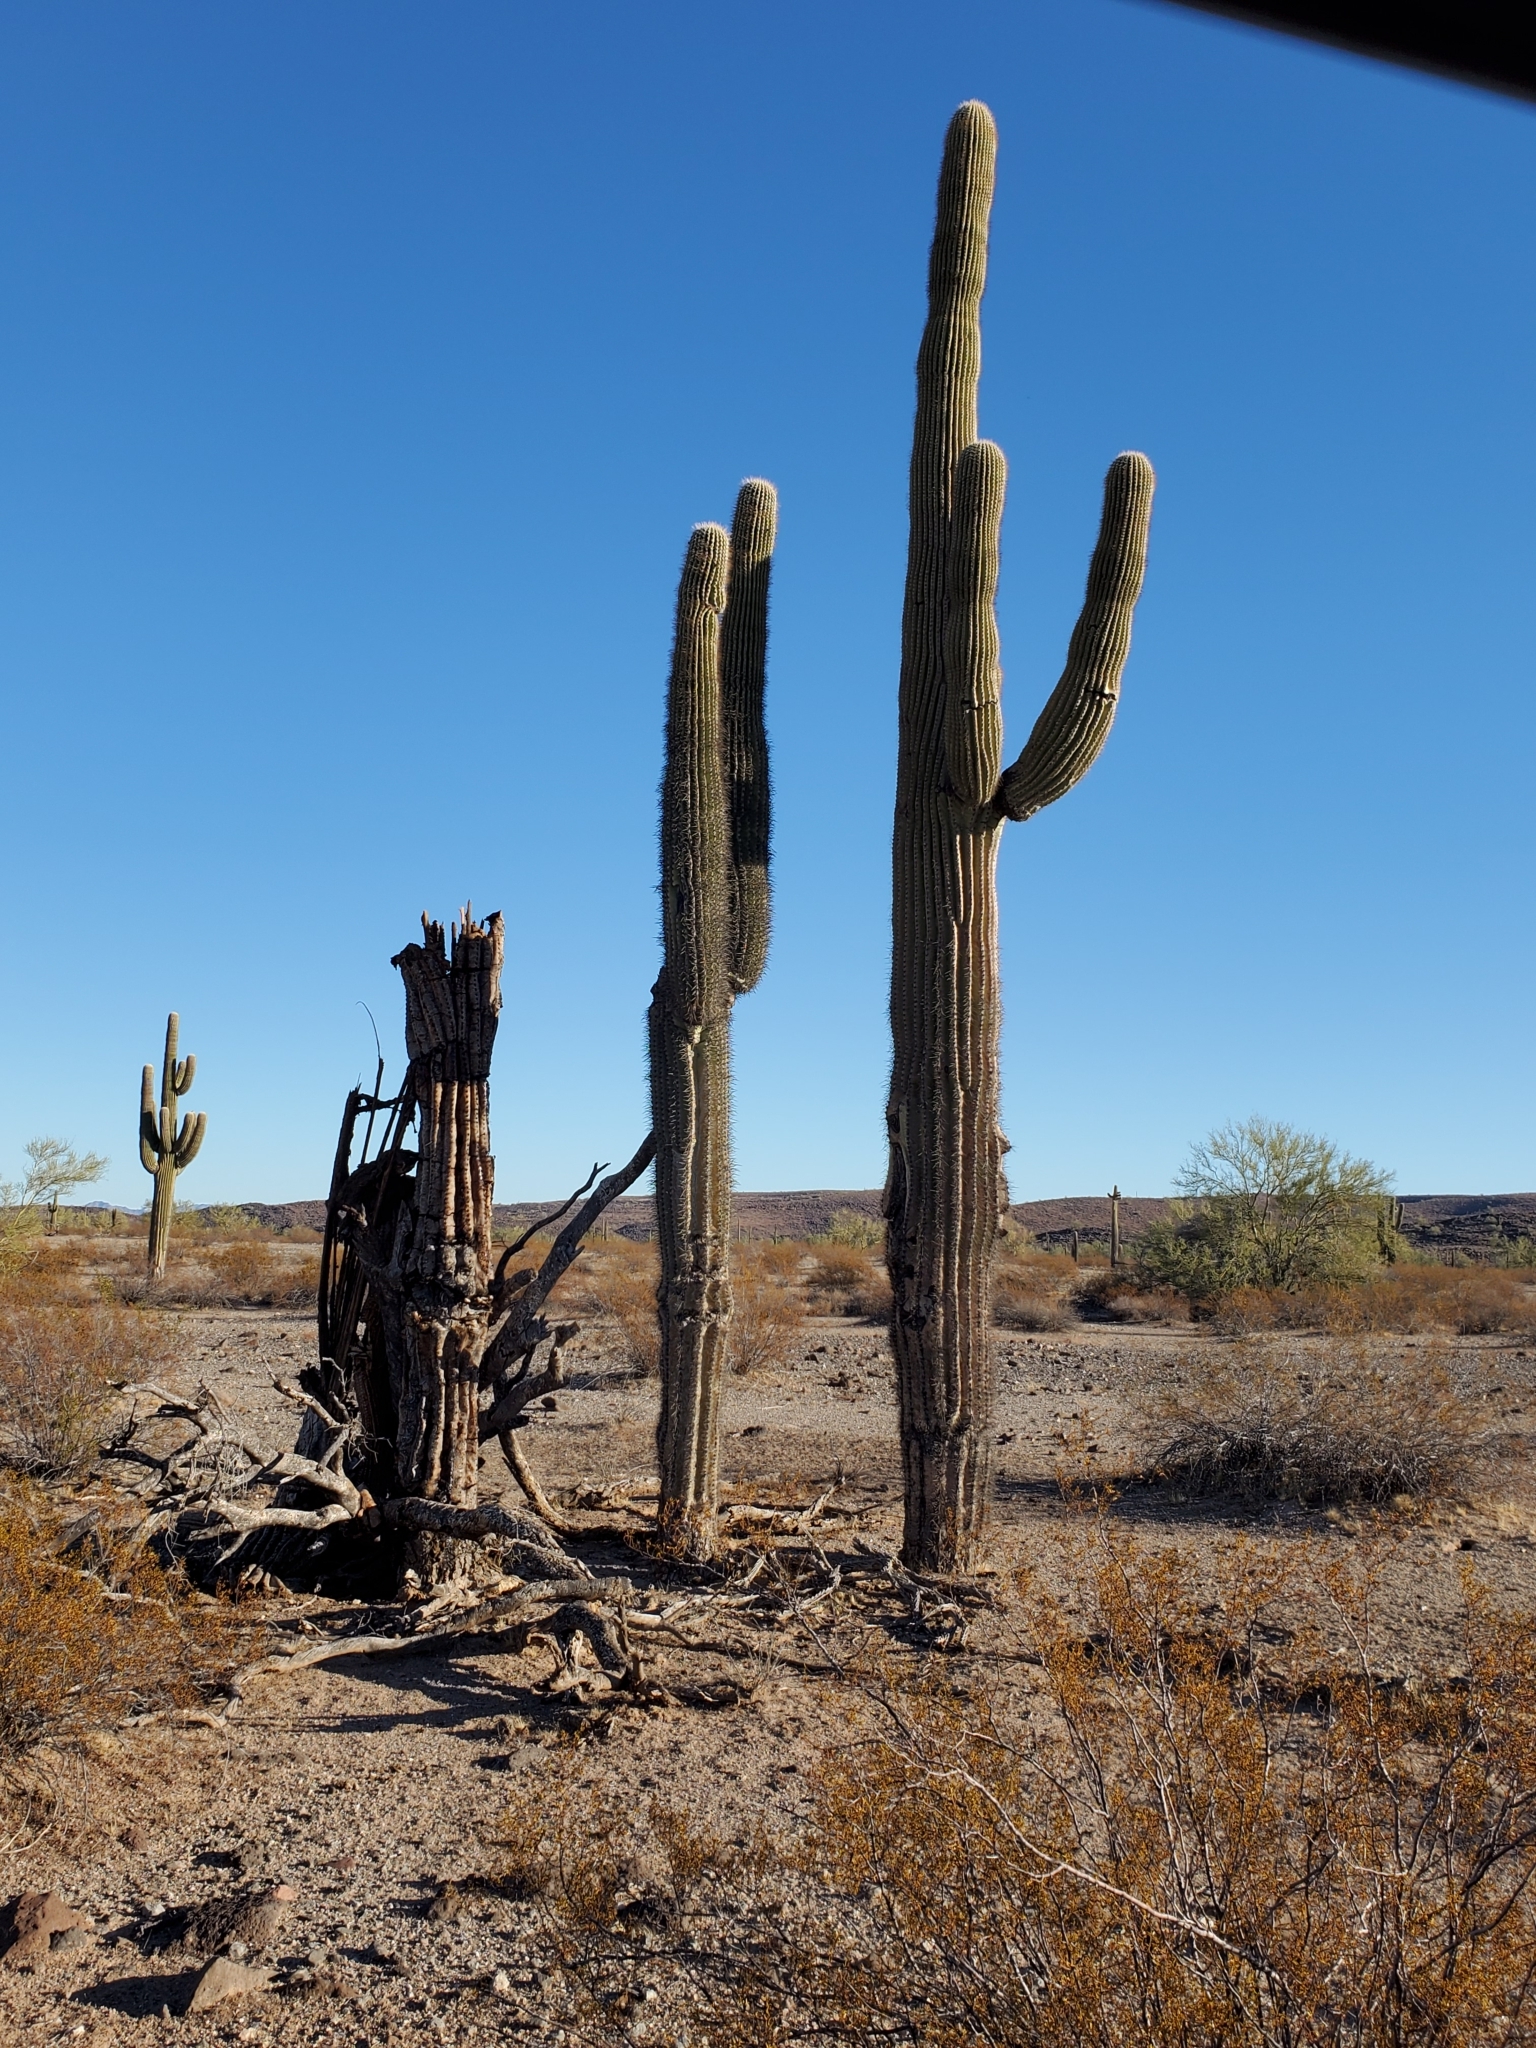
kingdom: Plantae
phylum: Tracheophyta
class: Magnoliopsida
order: Caryophyllales
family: Cactaceae
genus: Carnegiea
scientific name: Carnegiea gigantea
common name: Saguaro
